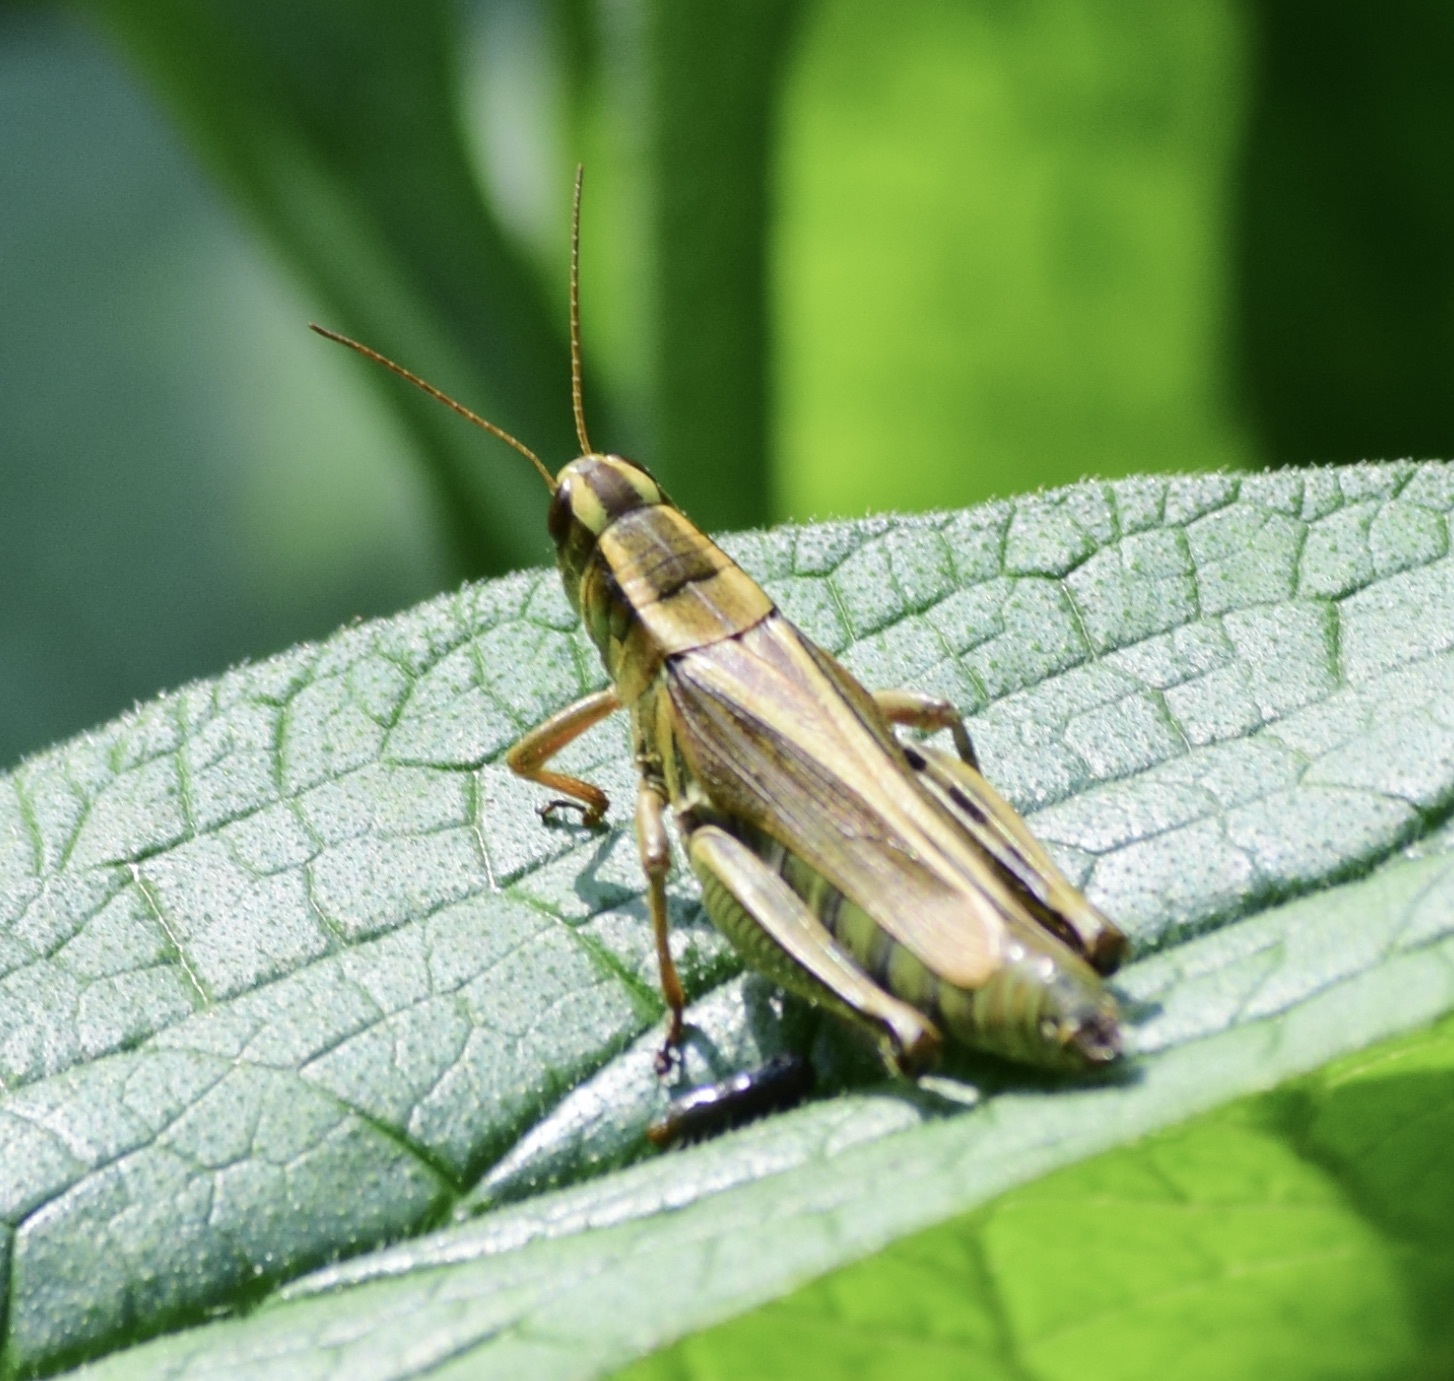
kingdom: Animalia
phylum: Arthropoda
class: Insecta
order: Orthoptera
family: Acrididae
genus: Melanoplus
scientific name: Melanoplus bivittatus
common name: Two-striped grasshopper
